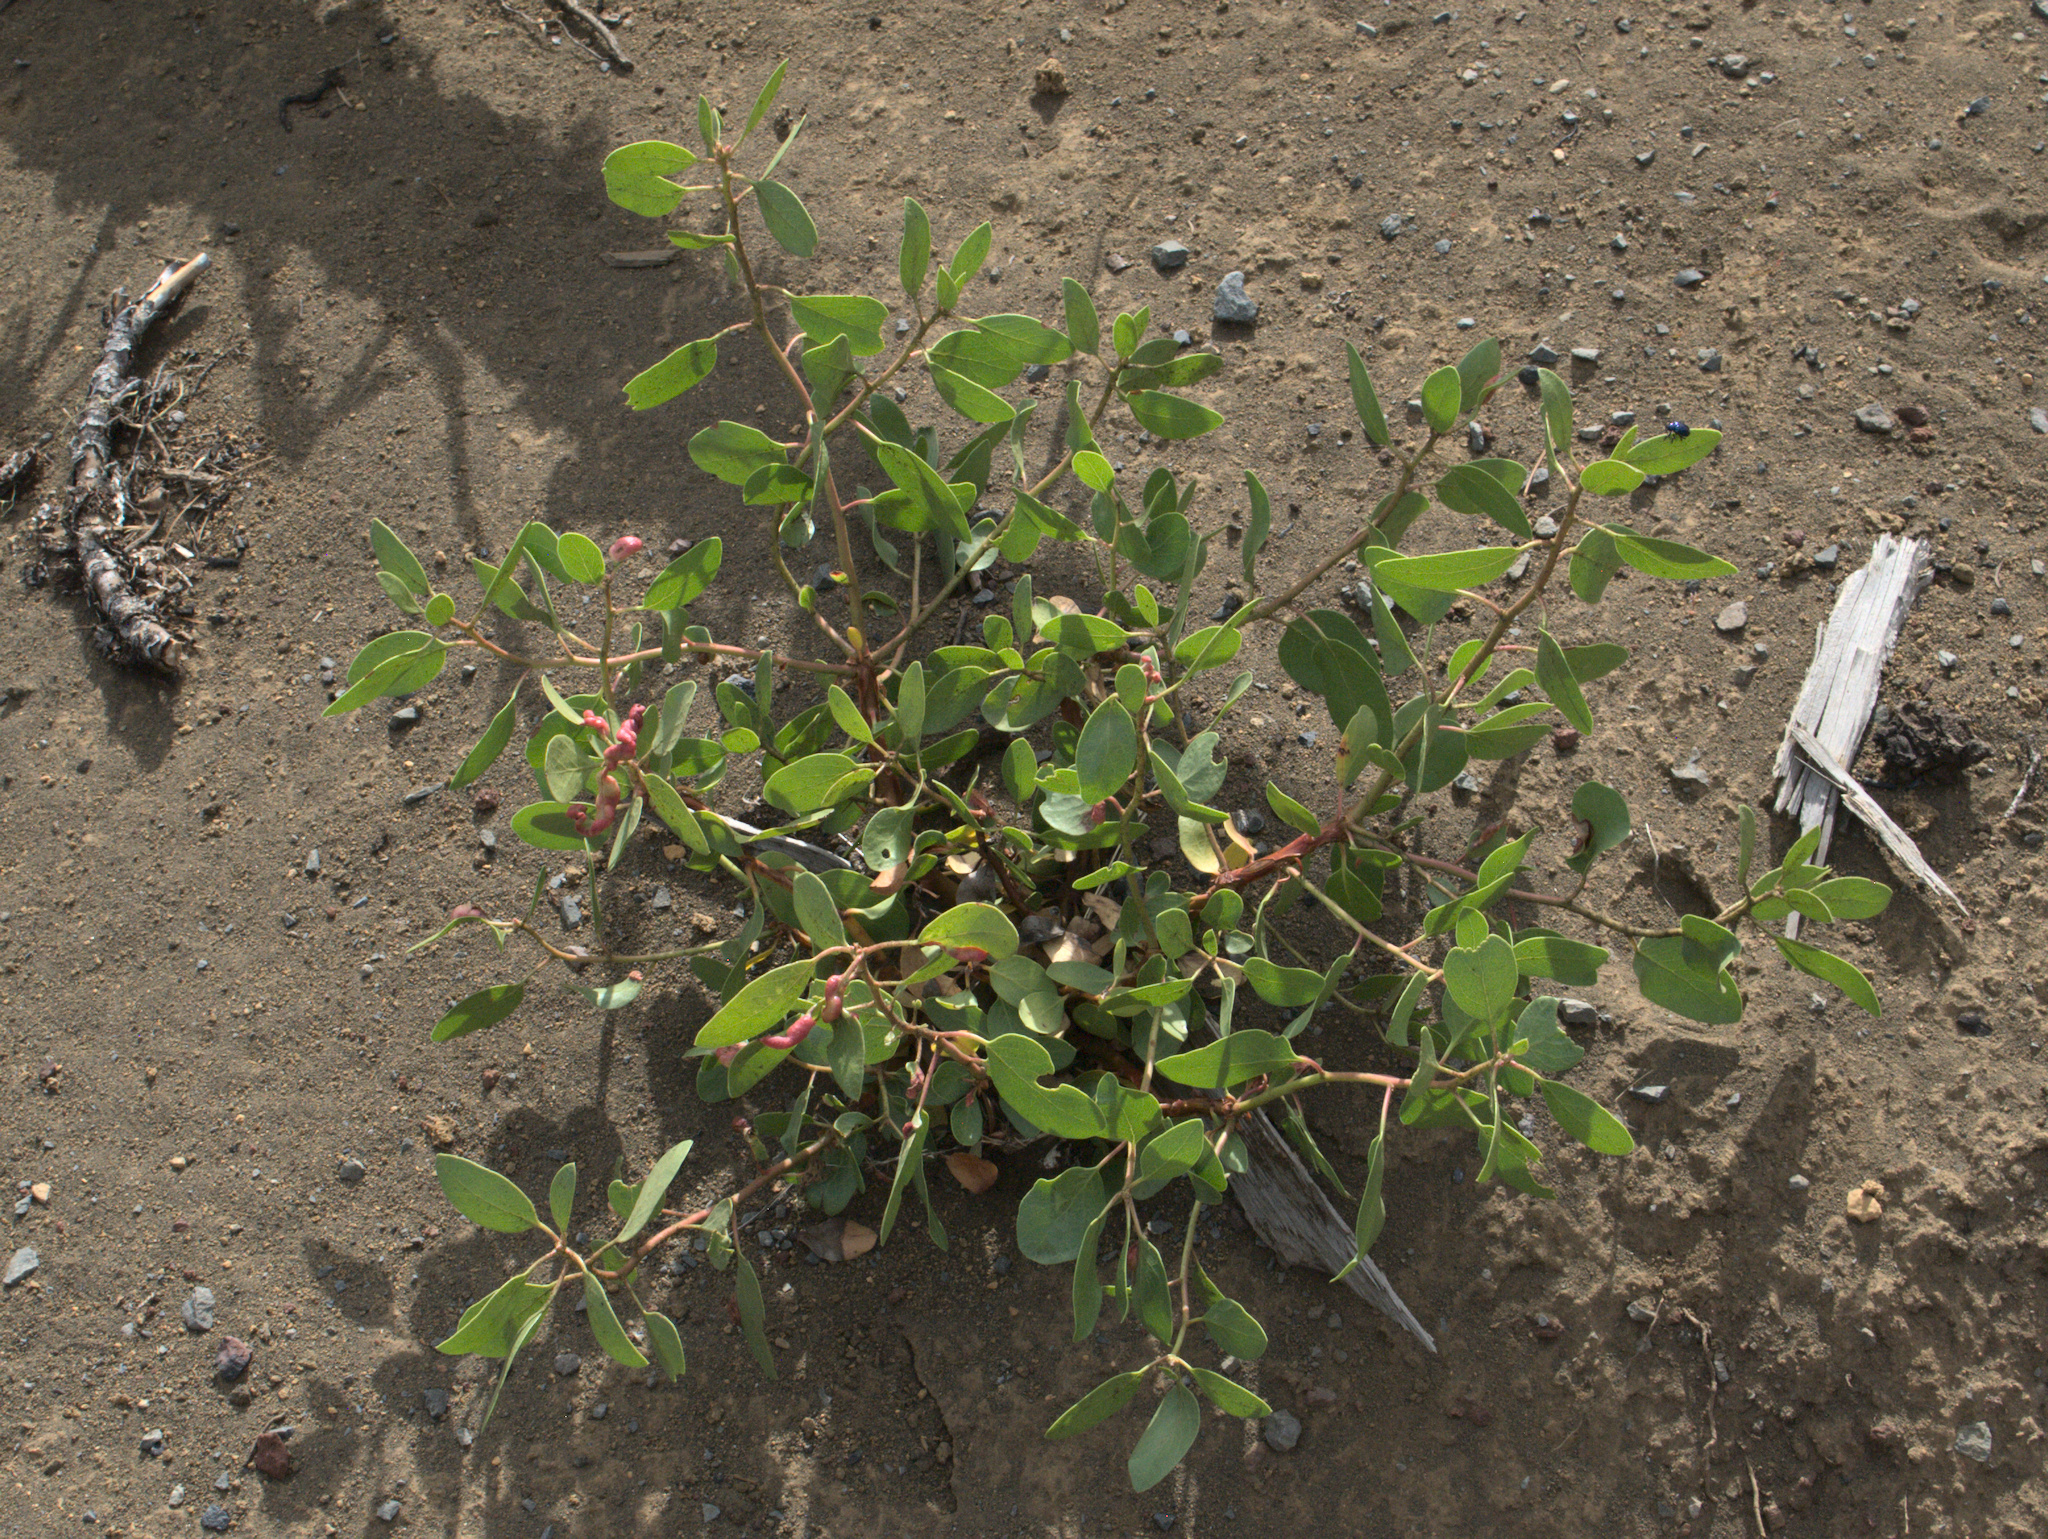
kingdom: Plantae
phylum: Tracheophyta
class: Magnoliopsida
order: Ericales
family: Ericaceae
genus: Arctostaphylos
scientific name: Arctostaphylos patula
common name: Green-leaf manzanita
